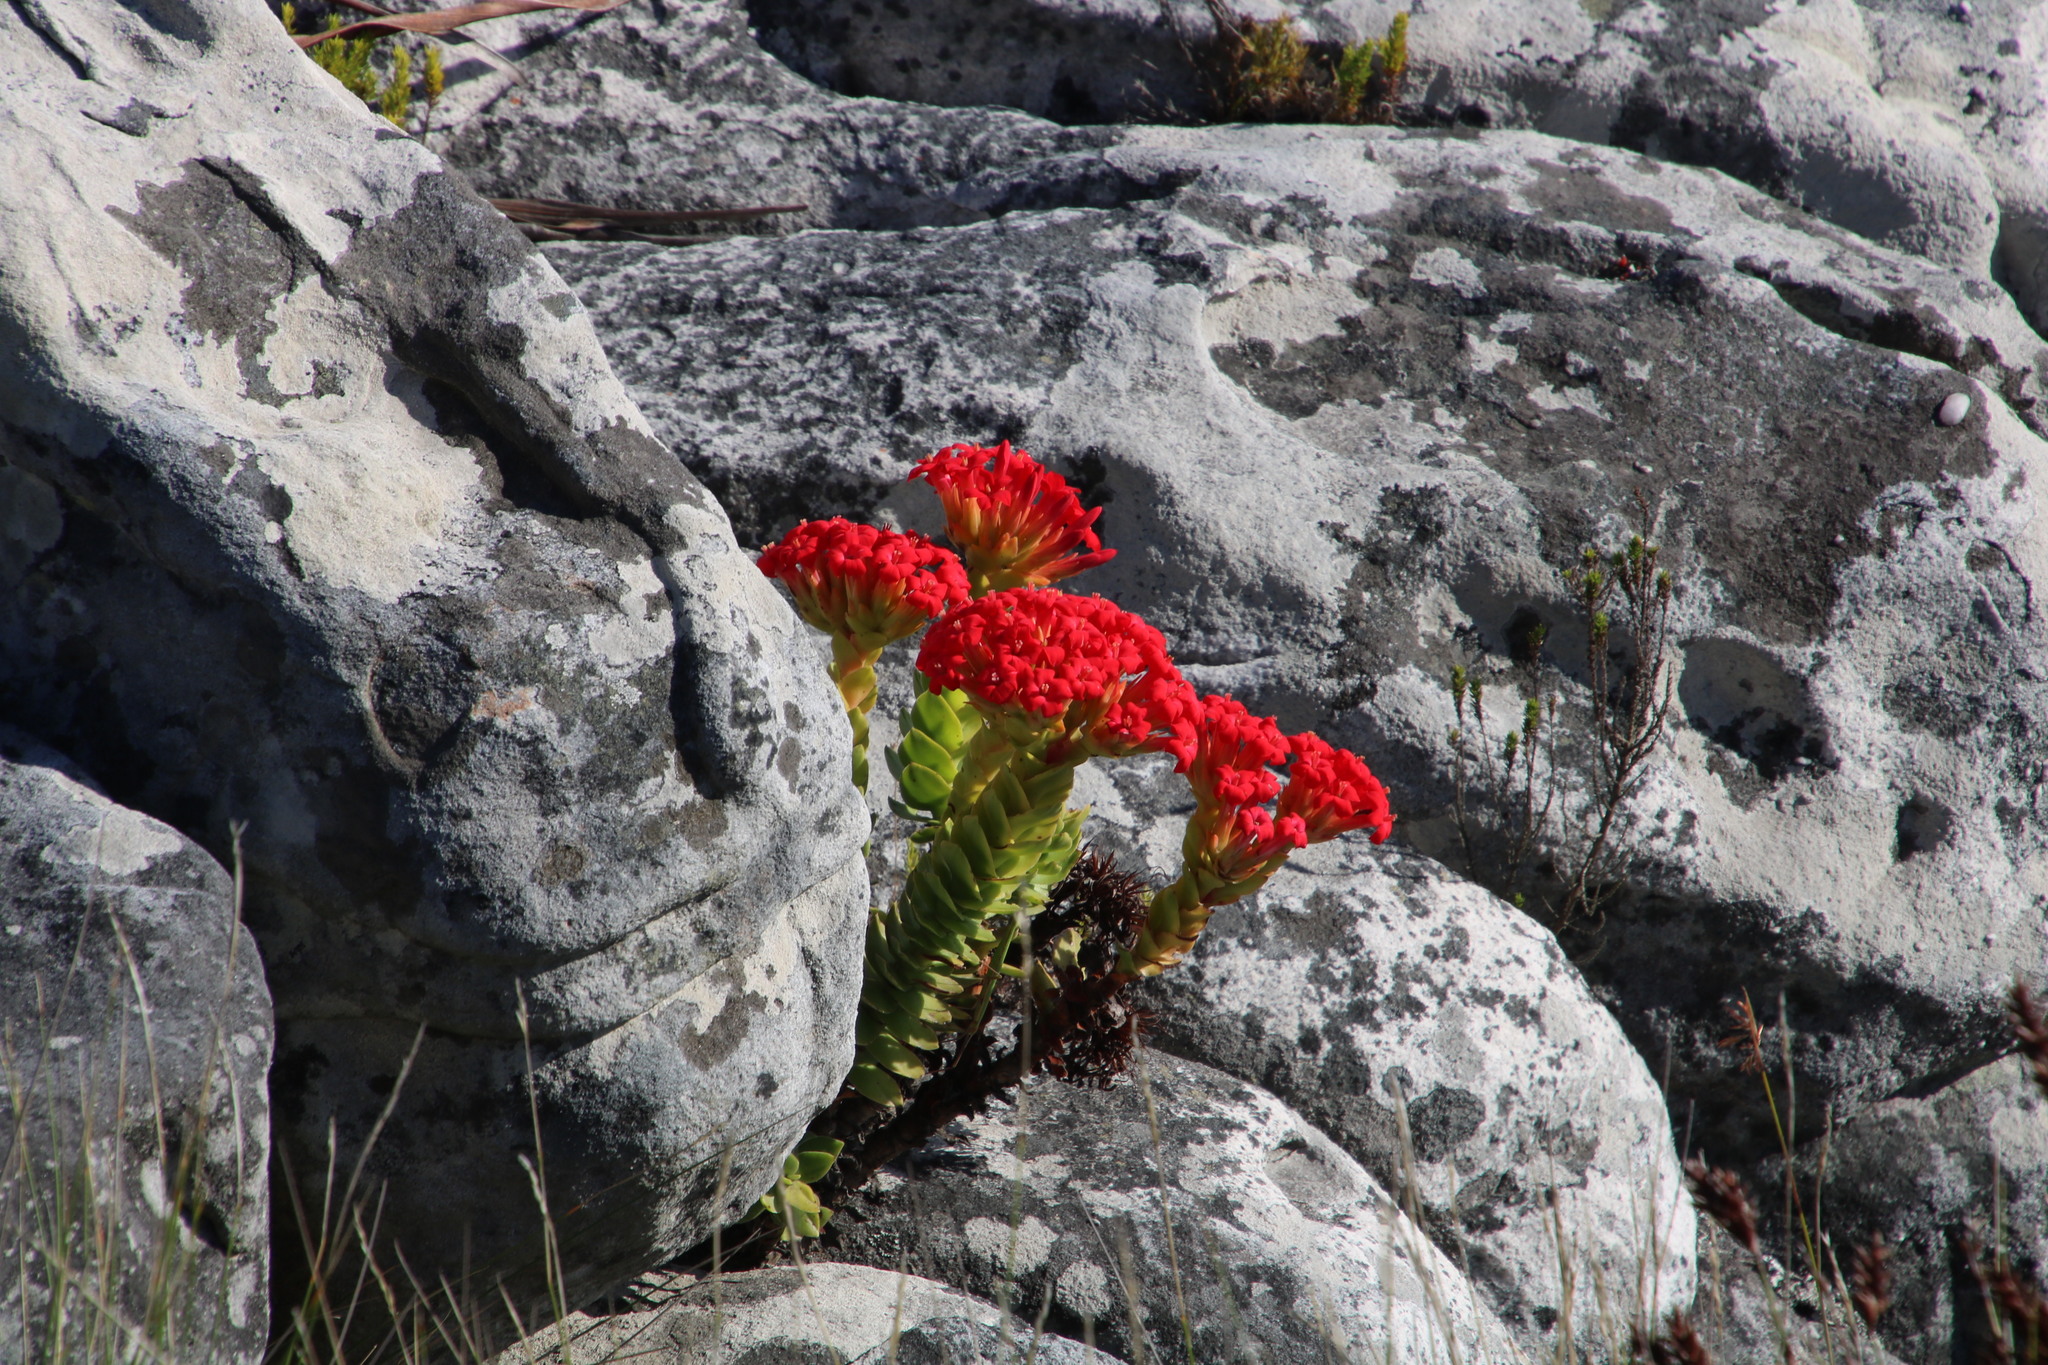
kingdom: Plantae
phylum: Tracheophyta
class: Magnoliopsida
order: Saxifragales
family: Crassulaceae
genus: Crassula
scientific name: Crassula coccinea
